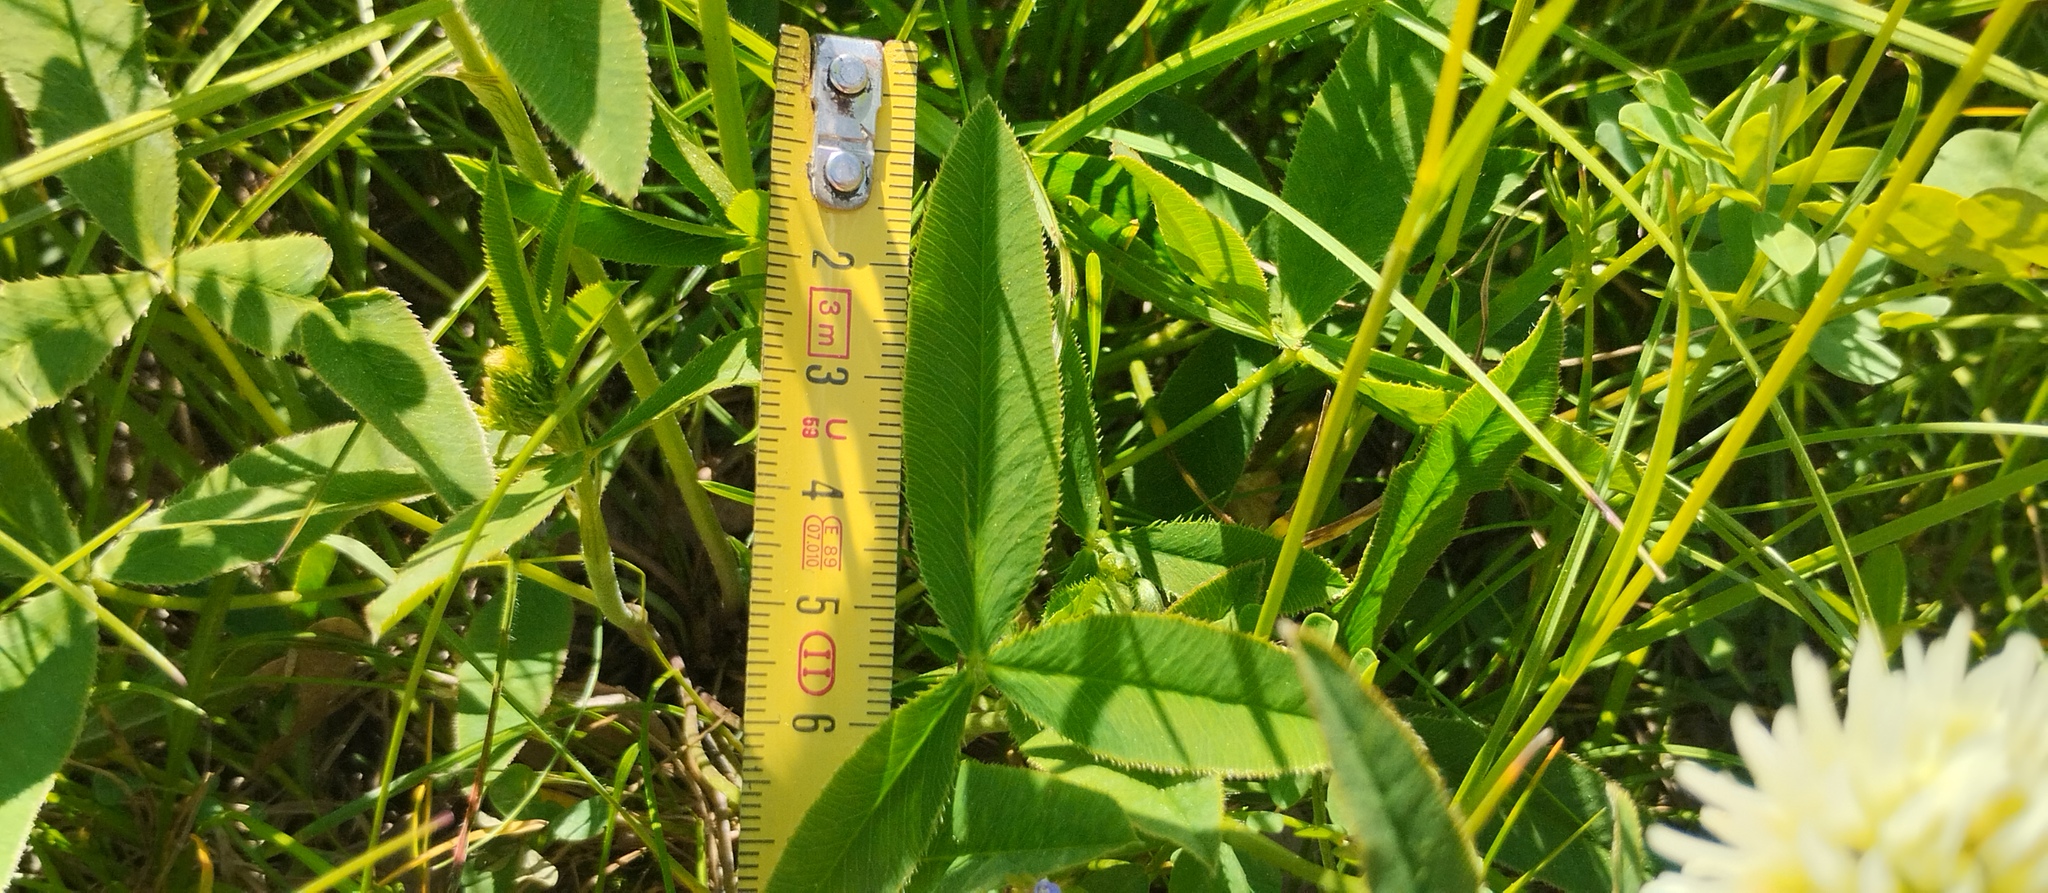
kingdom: Plantae
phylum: Tracheophyta
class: Magnoliopsida
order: Fabales
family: Fabaceae
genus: Trifolium
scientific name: Trifolium montanum
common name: Mountain clover
